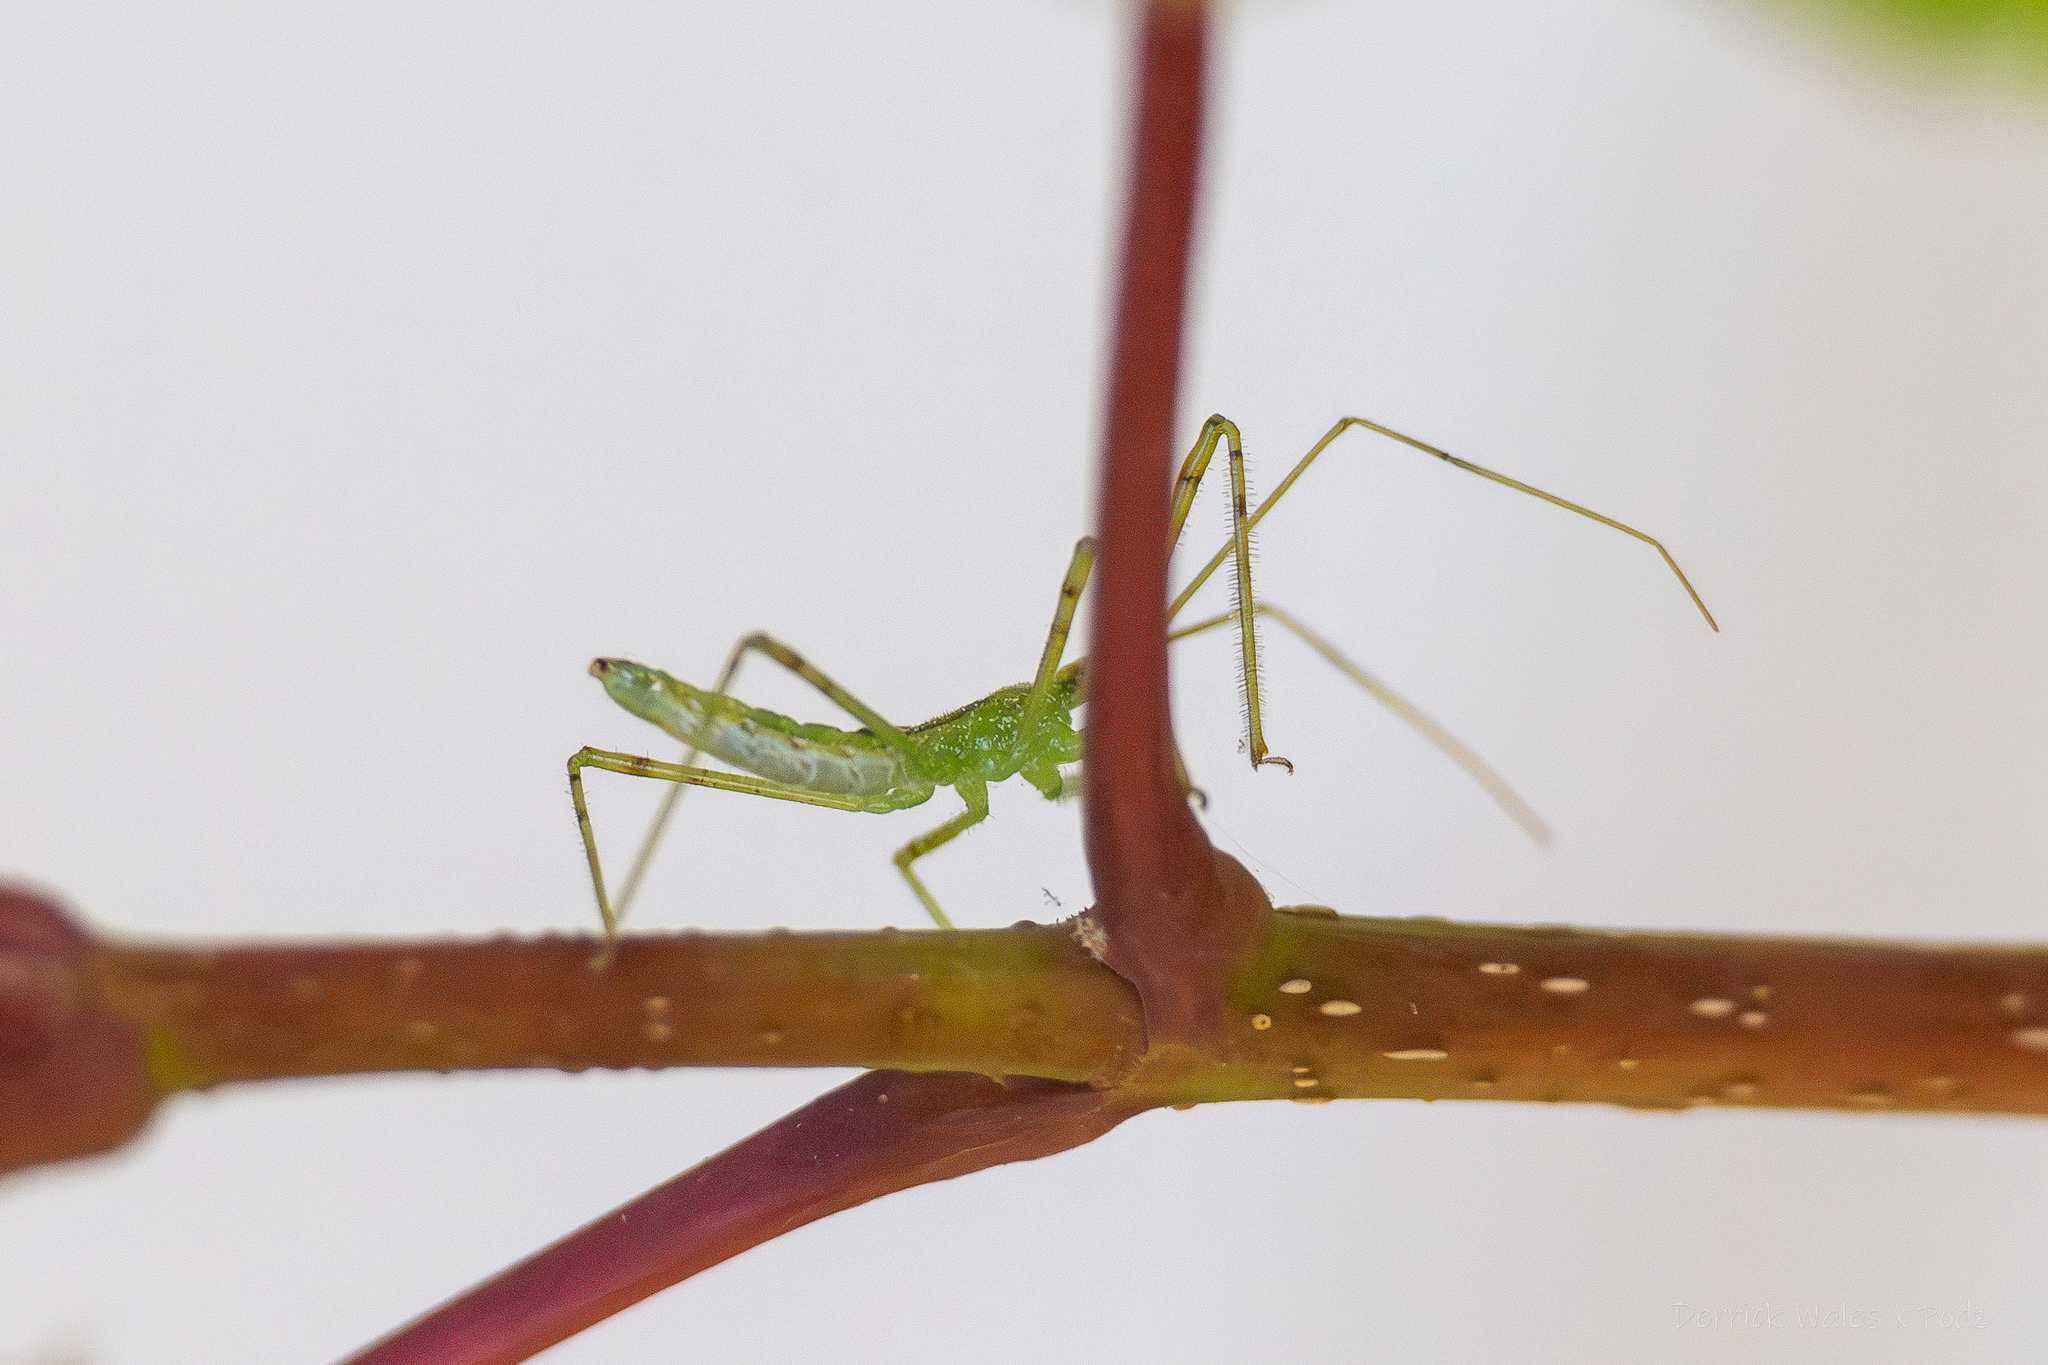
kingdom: Animalia
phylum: Arthropoda
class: Insecta
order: Hemiptera
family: Reduviidae
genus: Zelus
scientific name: Zelus luridus
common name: Pale green assassin bug
